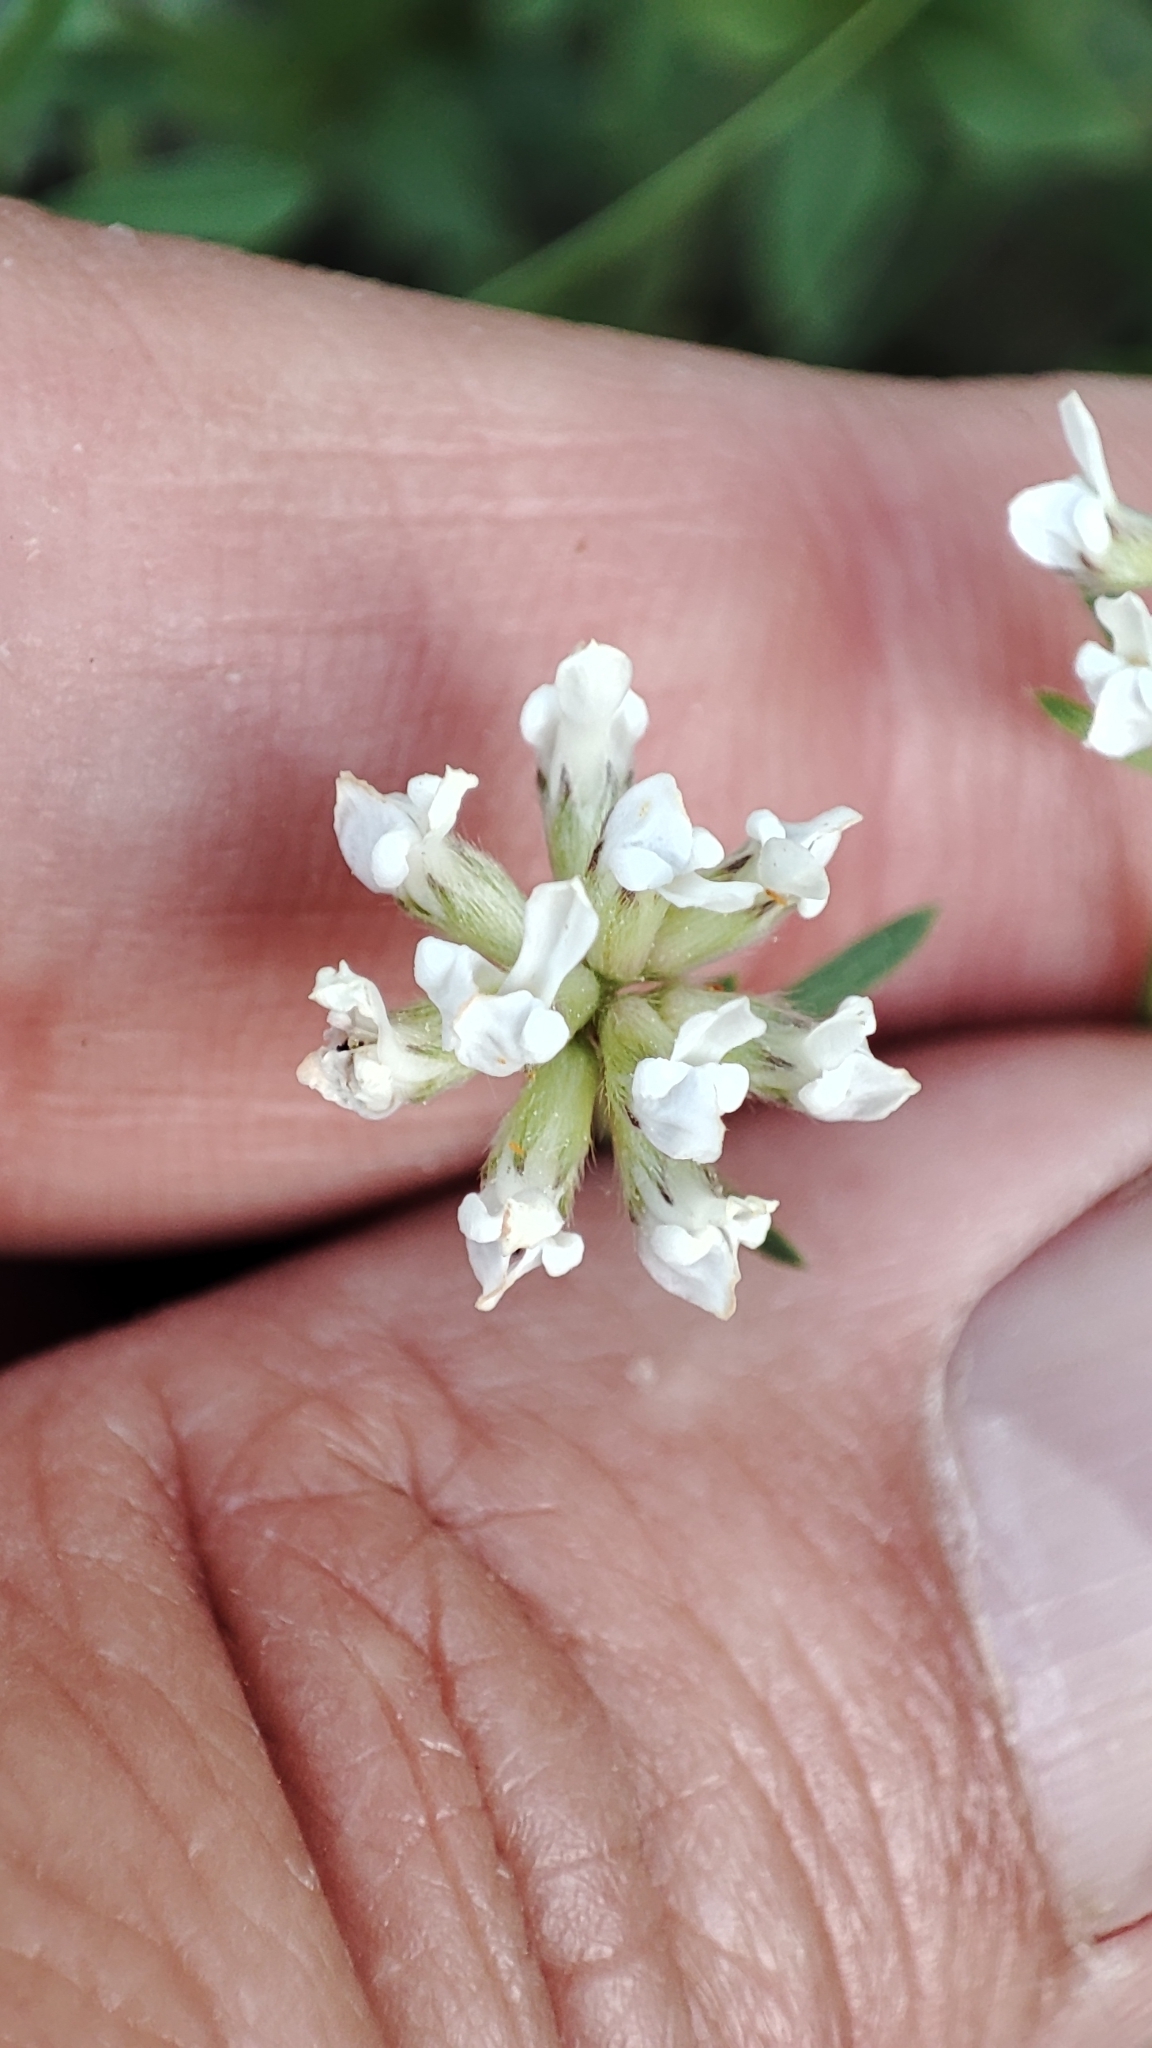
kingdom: Plantae
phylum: Tracheophyta
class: Magnoliopsida
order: Fabales
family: Fabaceae
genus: Lotus
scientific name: Lotus dorycnium
